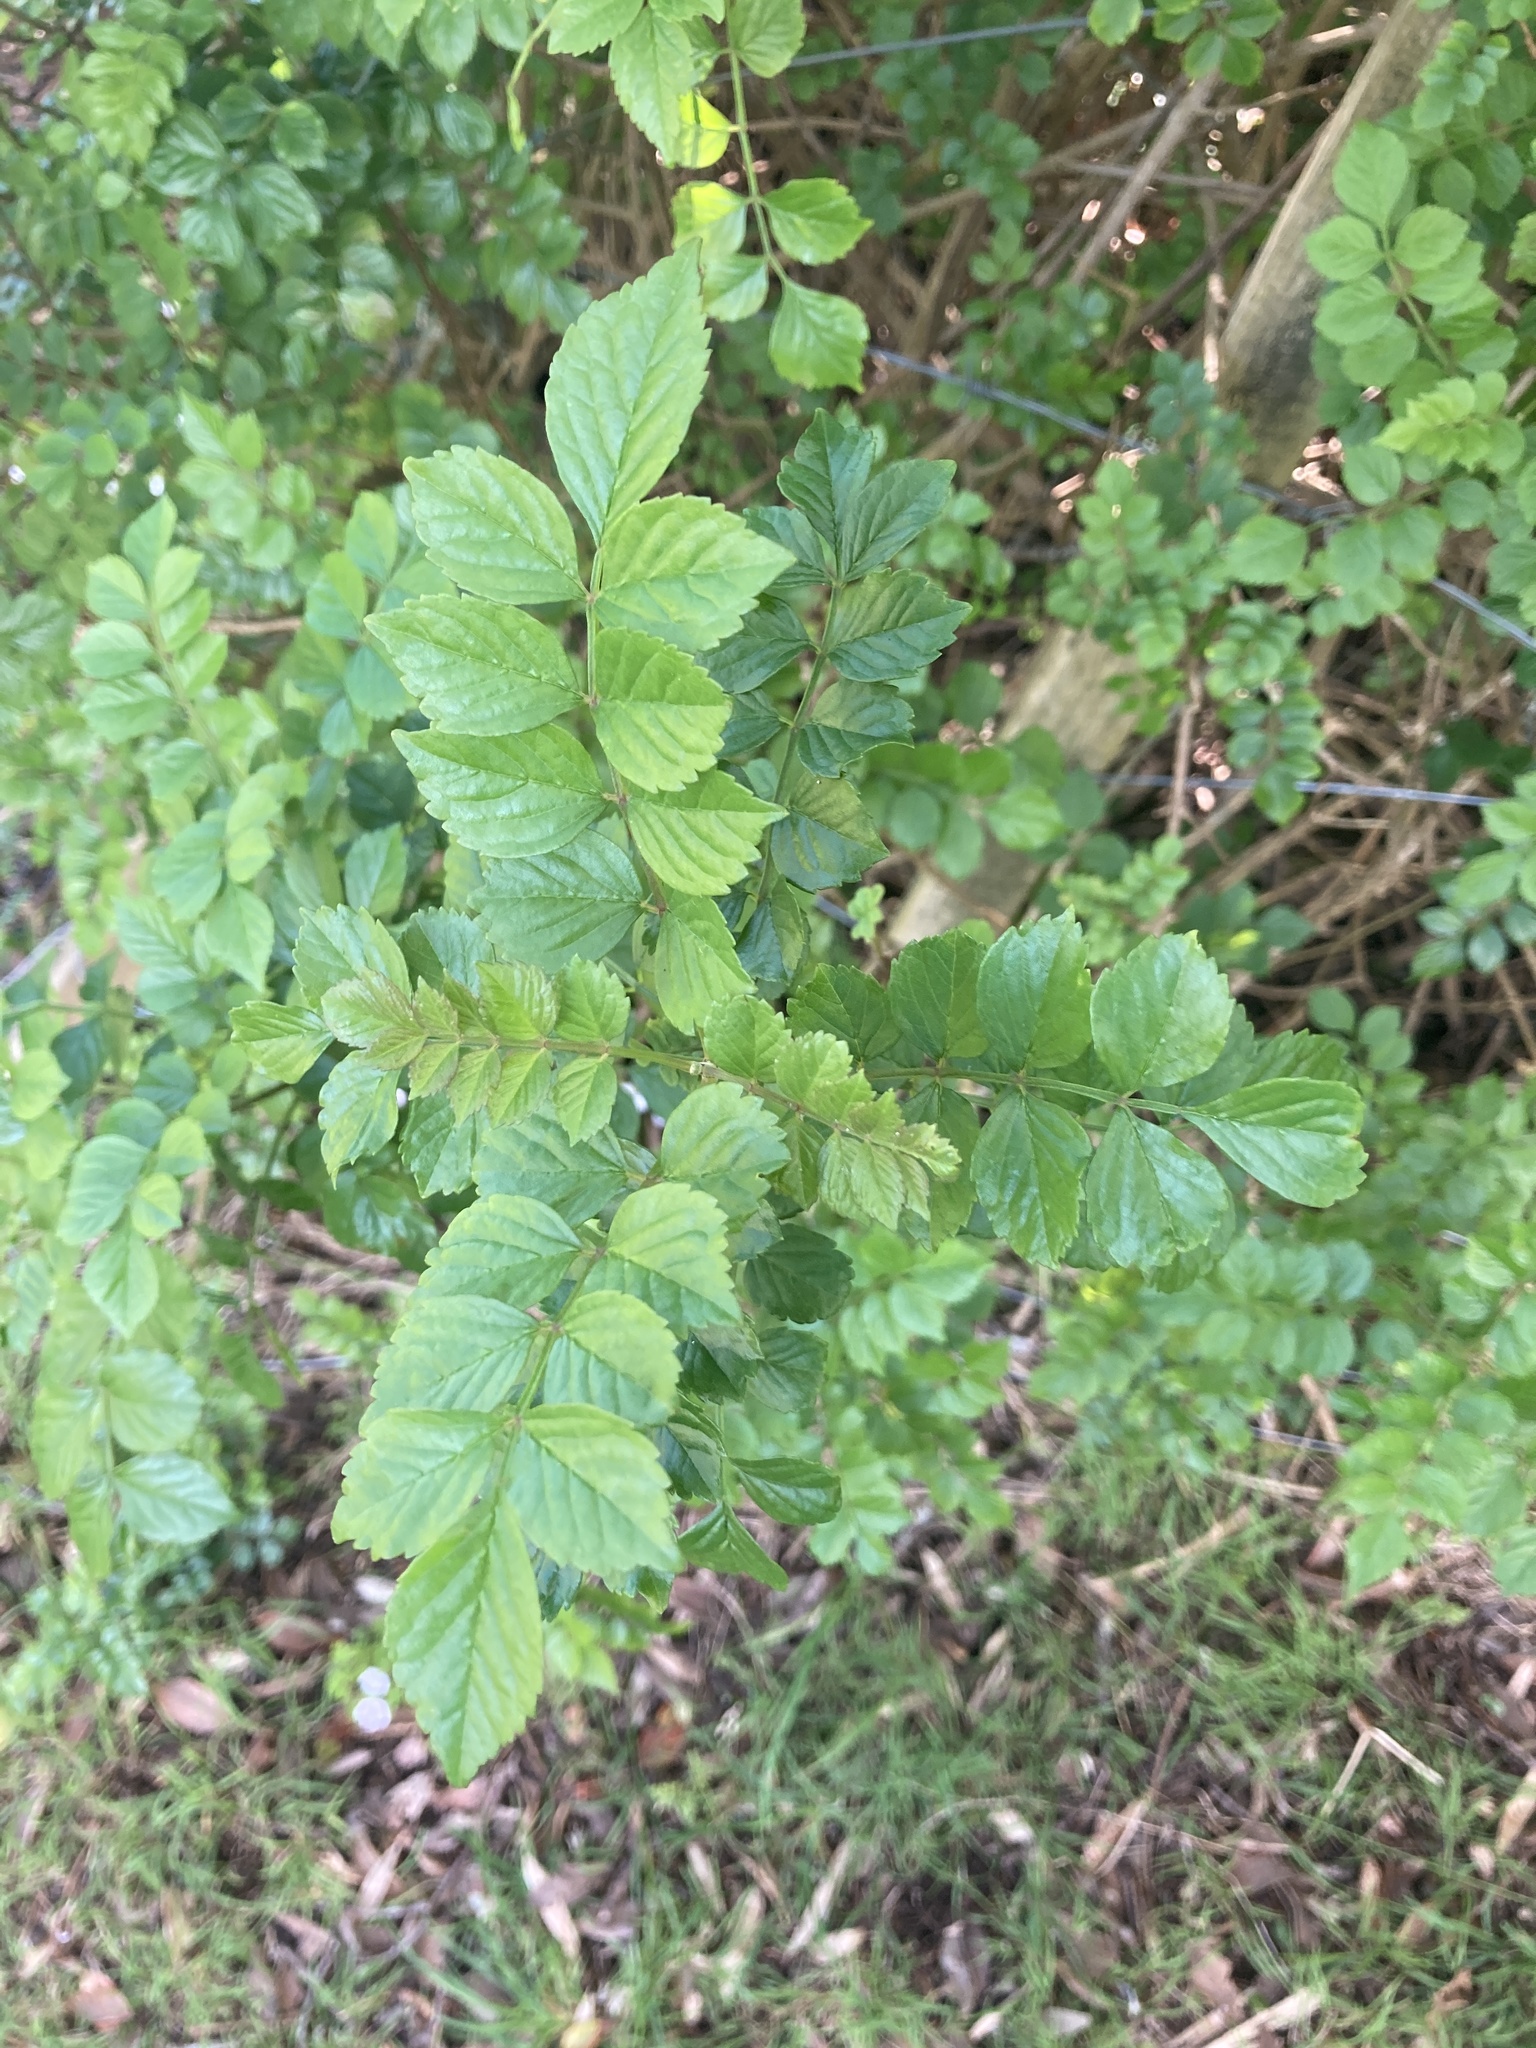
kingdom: Plantae
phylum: Tracheophyta
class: Magnoliopsida
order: Lamiales
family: Bignoniaceae
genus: Tecomaria
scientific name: Tecomaria capensis
